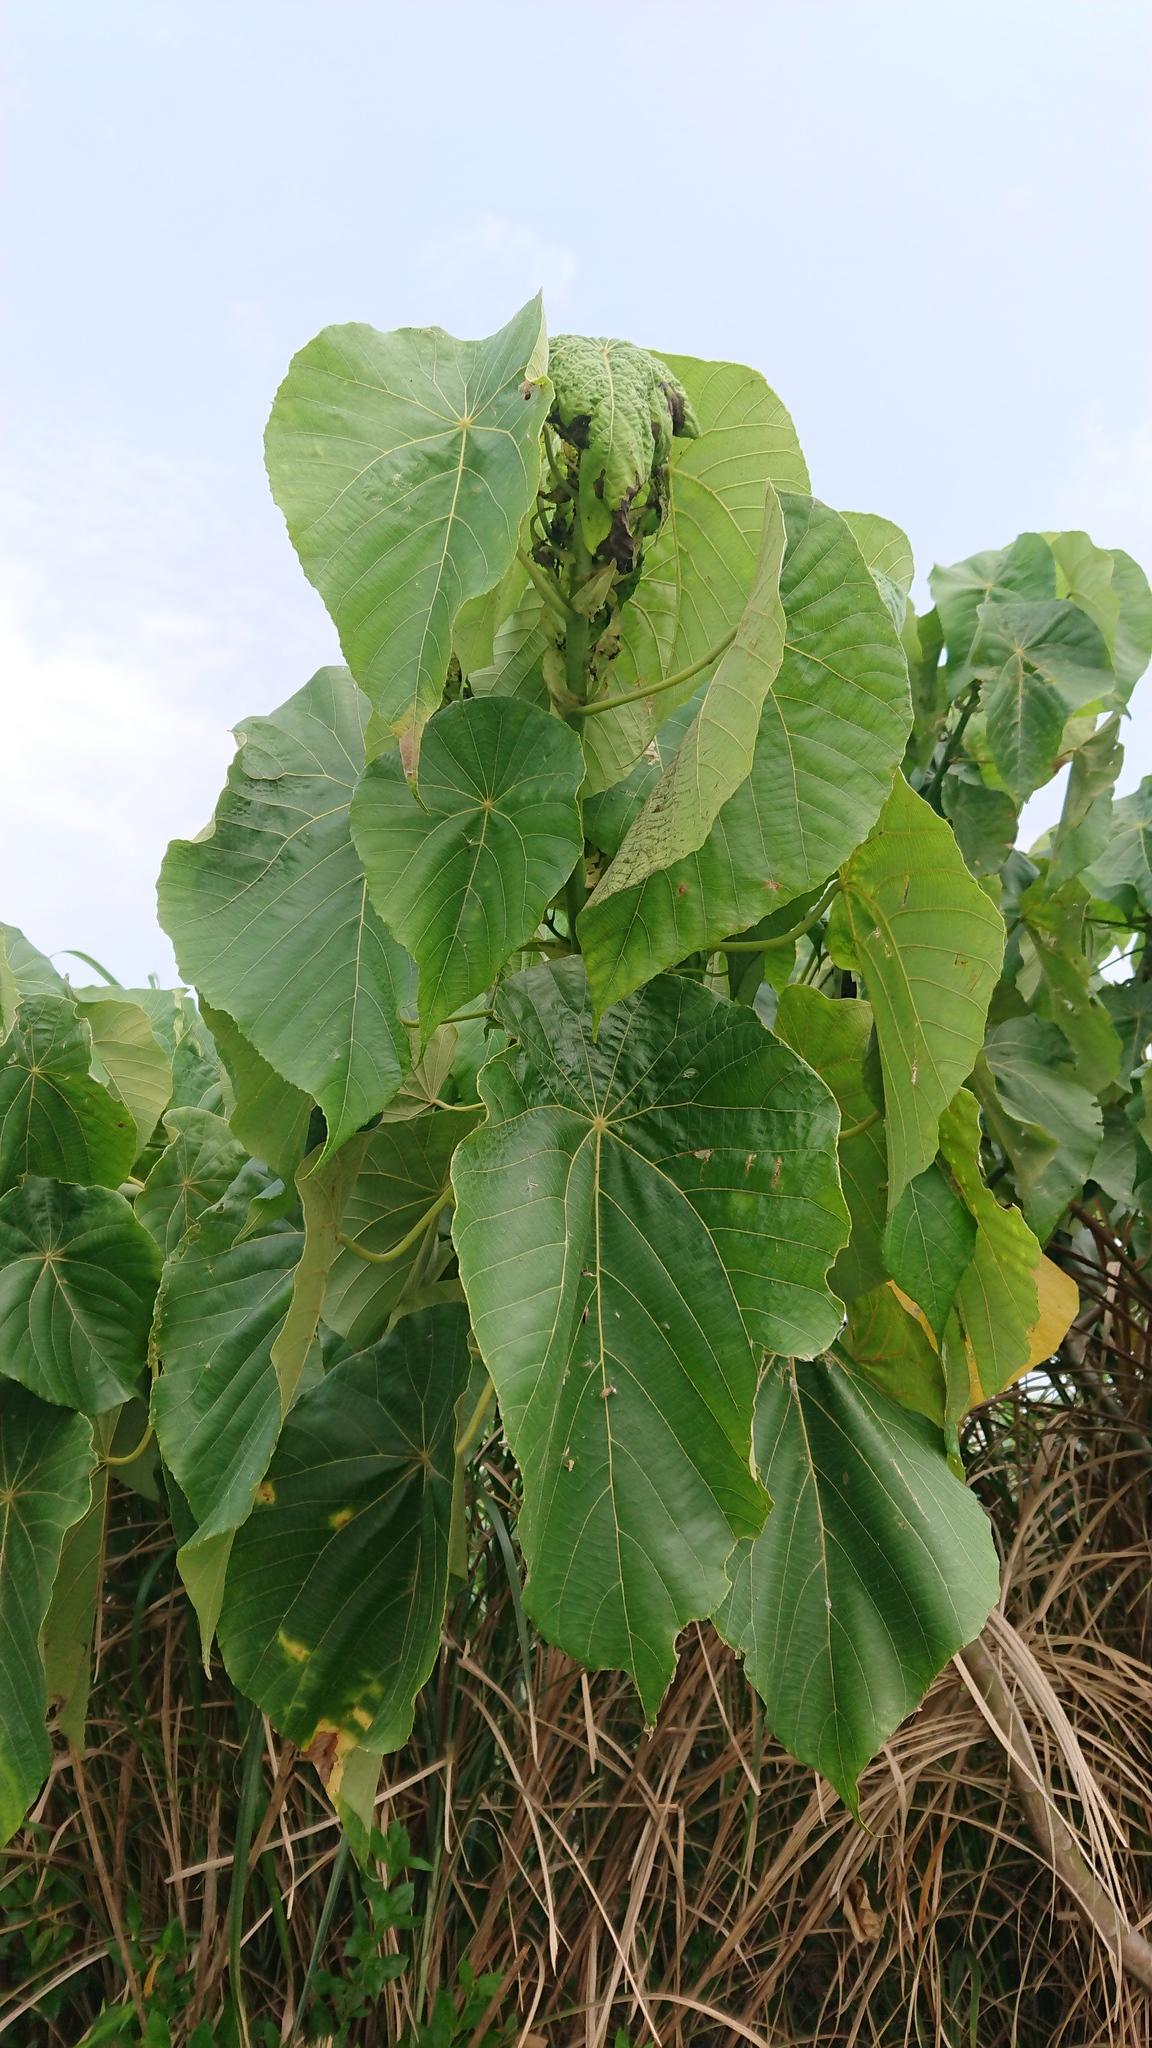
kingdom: Plantae
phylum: Tracheophyta
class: Magnoliopsida
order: Malpighiales
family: Euphorbiaceae
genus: Macaranga
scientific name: Macaranga tanarius
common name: Parasol leaf tree
